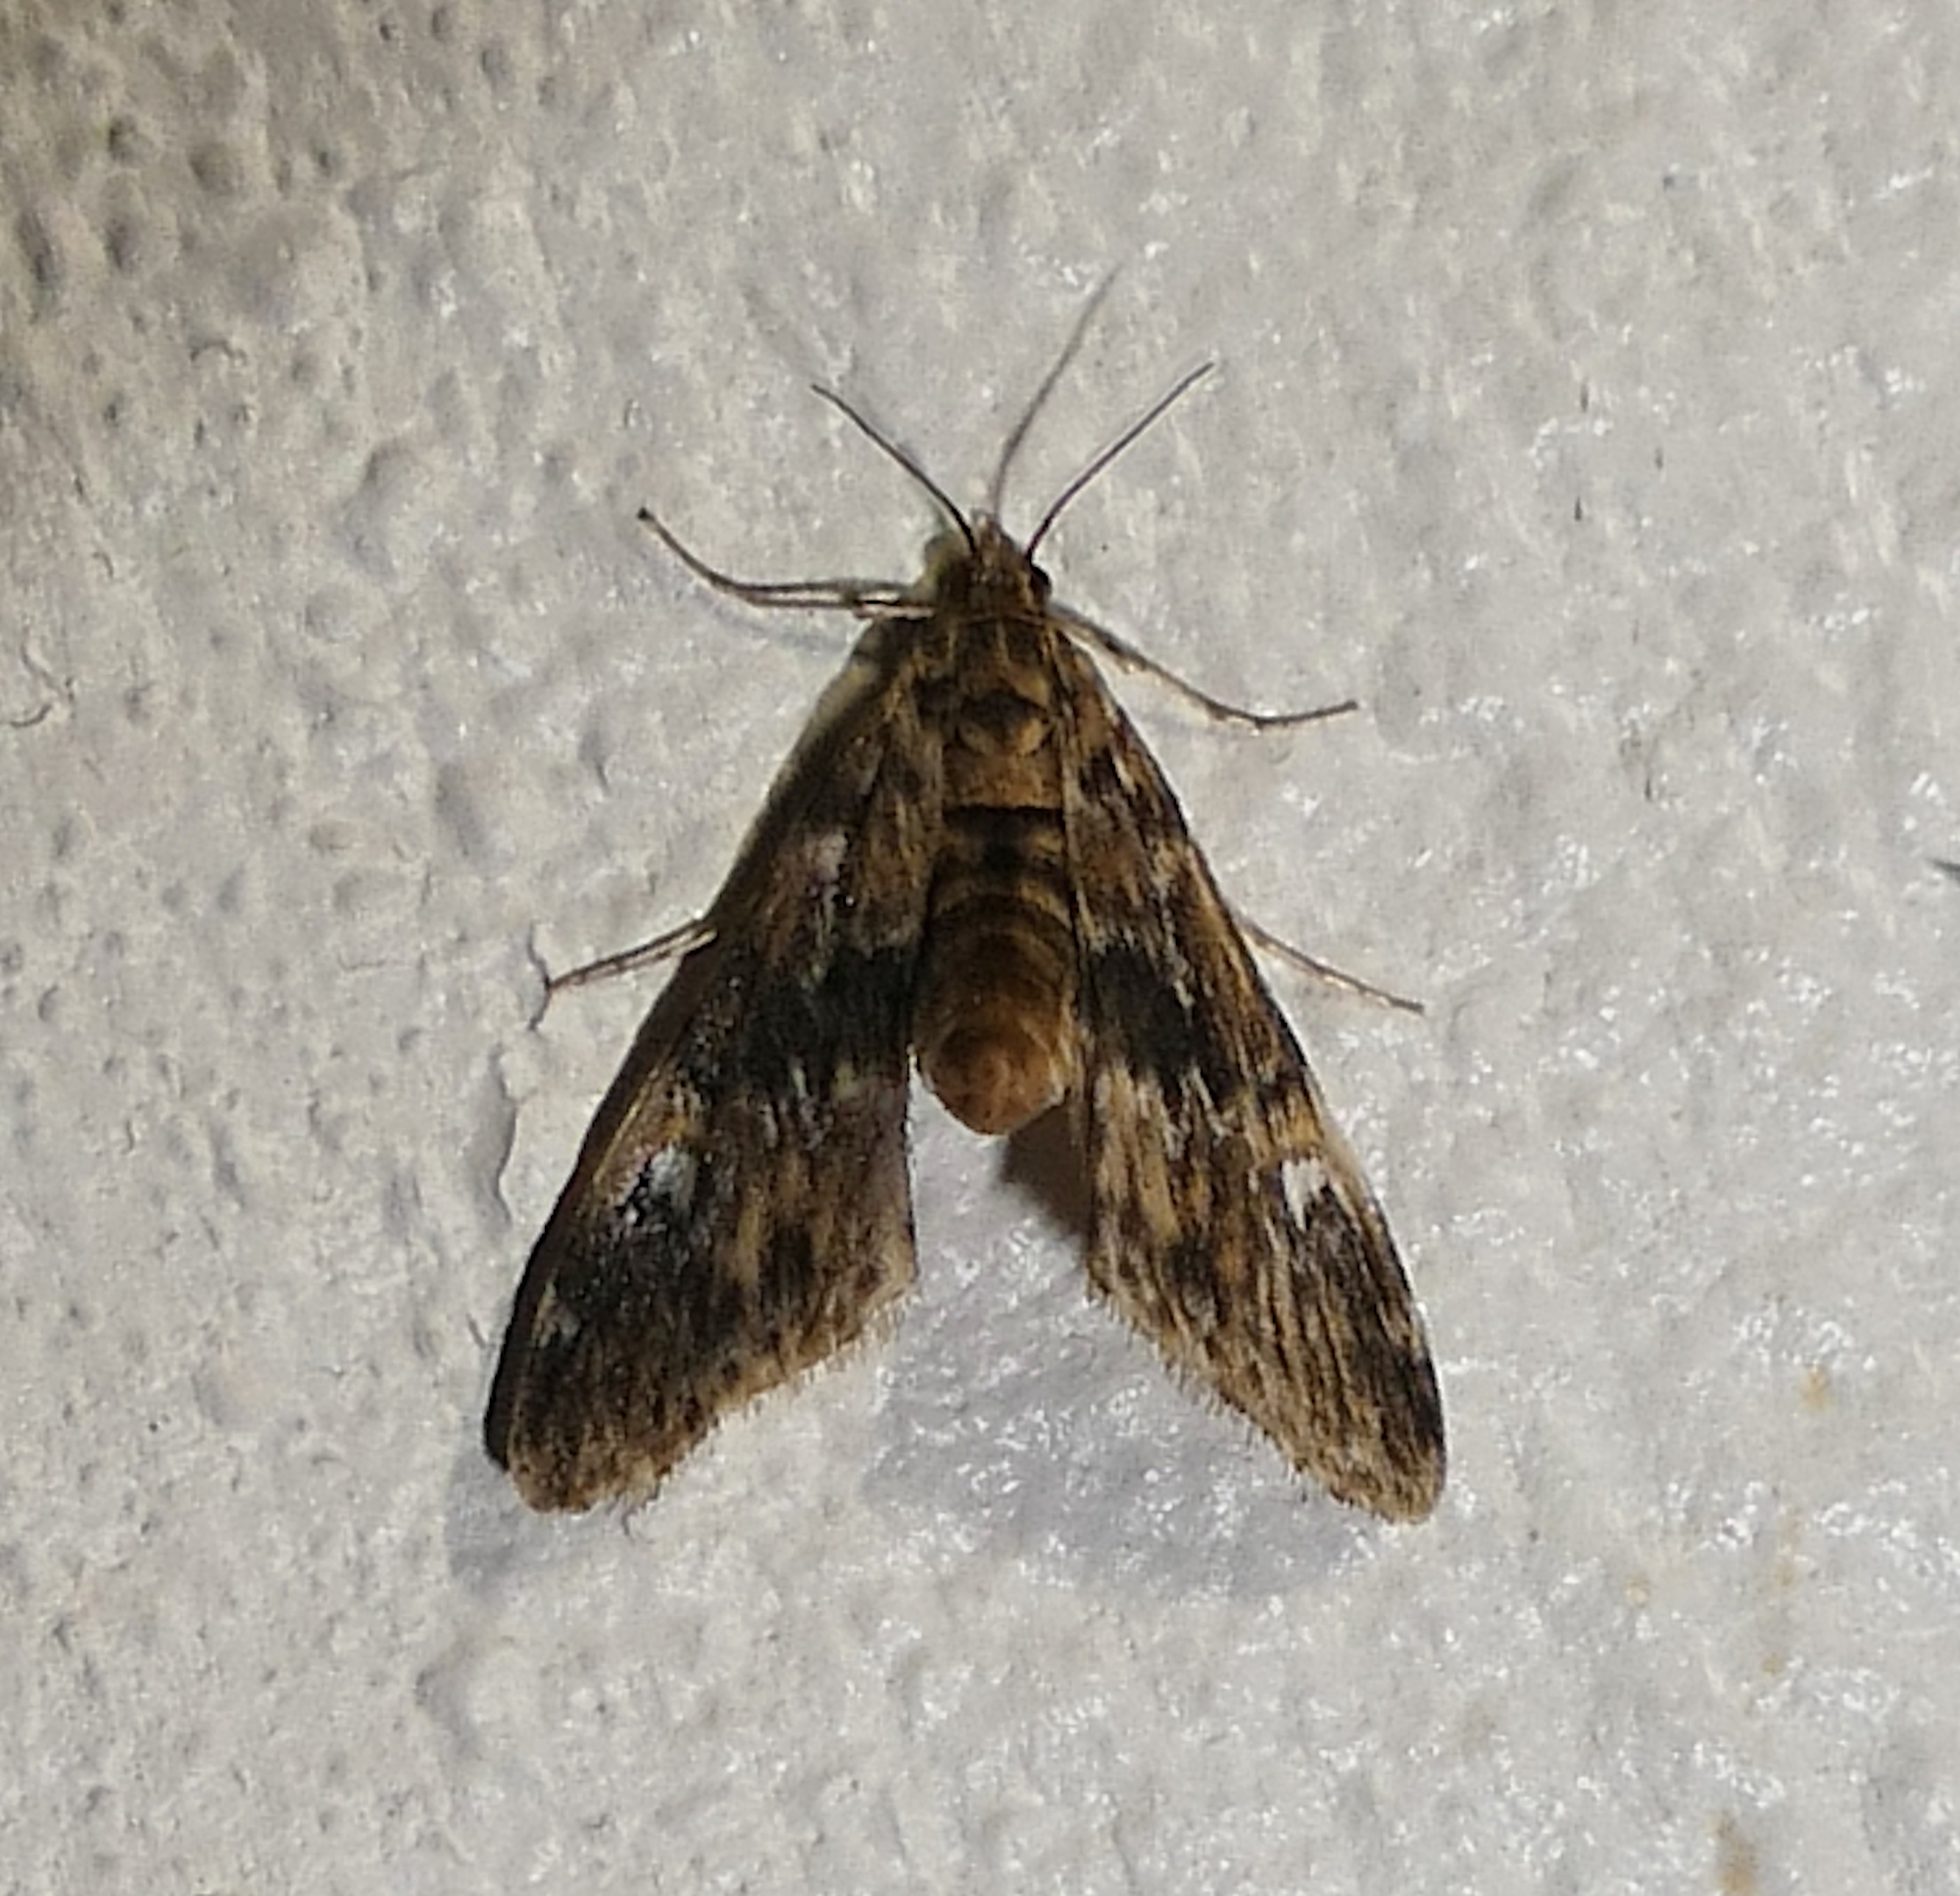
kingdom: Animalia
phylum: Arthropoda
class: Insecta
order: Lepidoptera
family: Crambidae
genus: Elophila
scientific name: Elophila obliteralis
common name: Waterlily leafcutter moth
